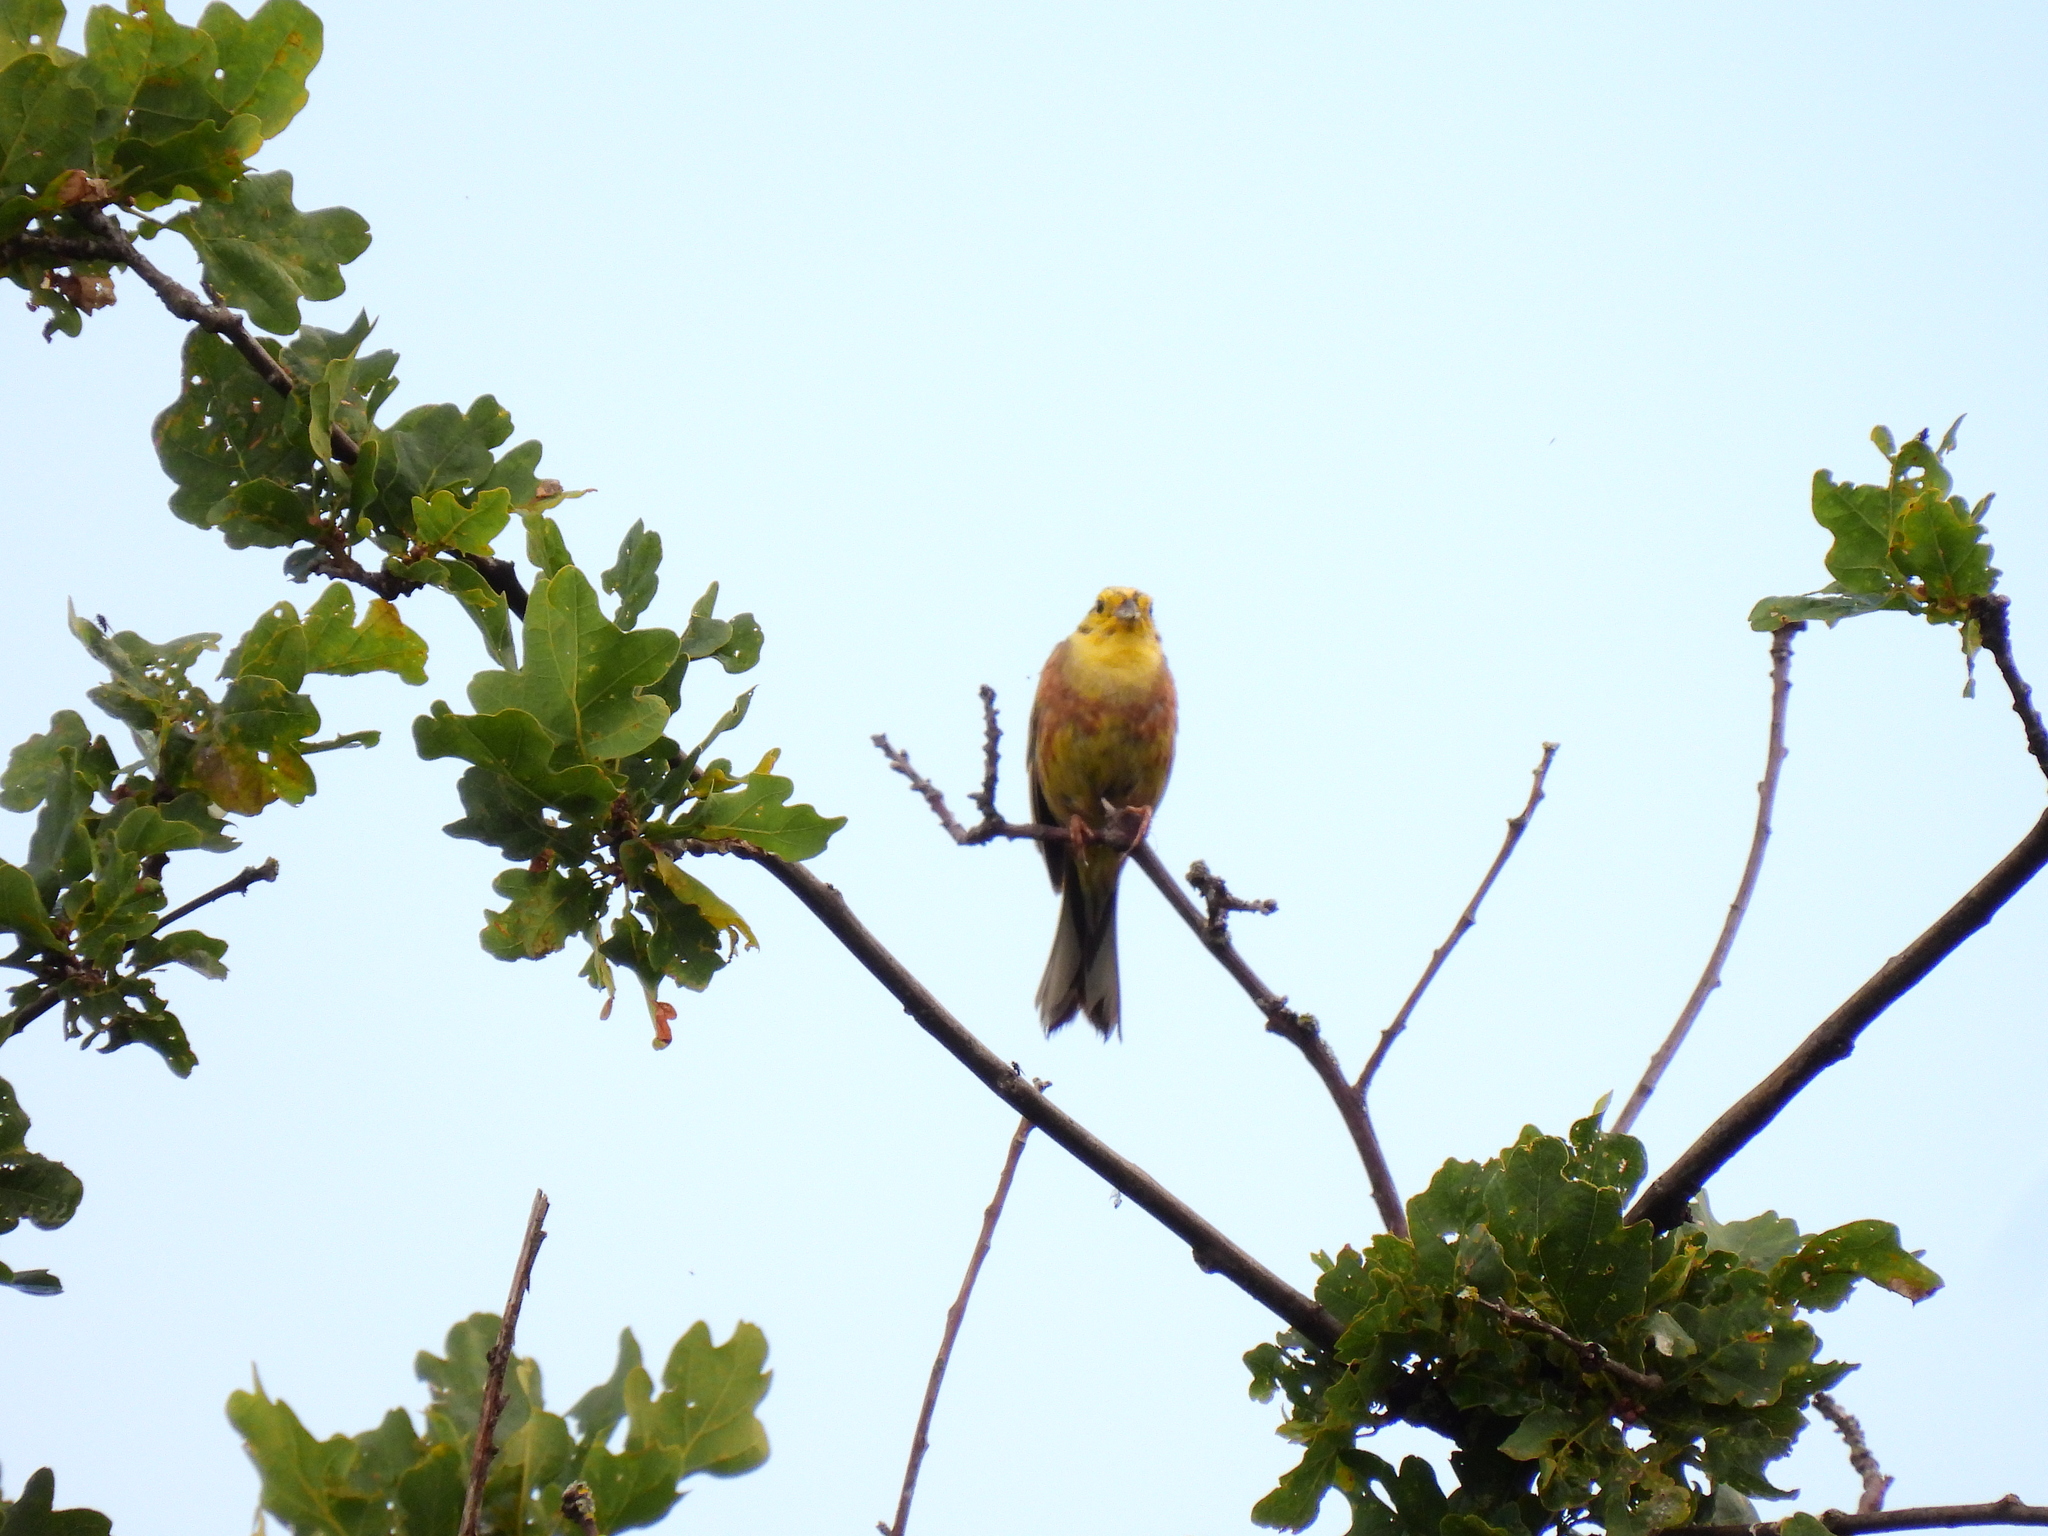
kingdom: Animalia
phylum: Chordata
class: Aves
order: Passeriformes
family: Emberizidae
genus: Emberiza
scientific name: Emberiza citrinella
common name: Yellowhammer
